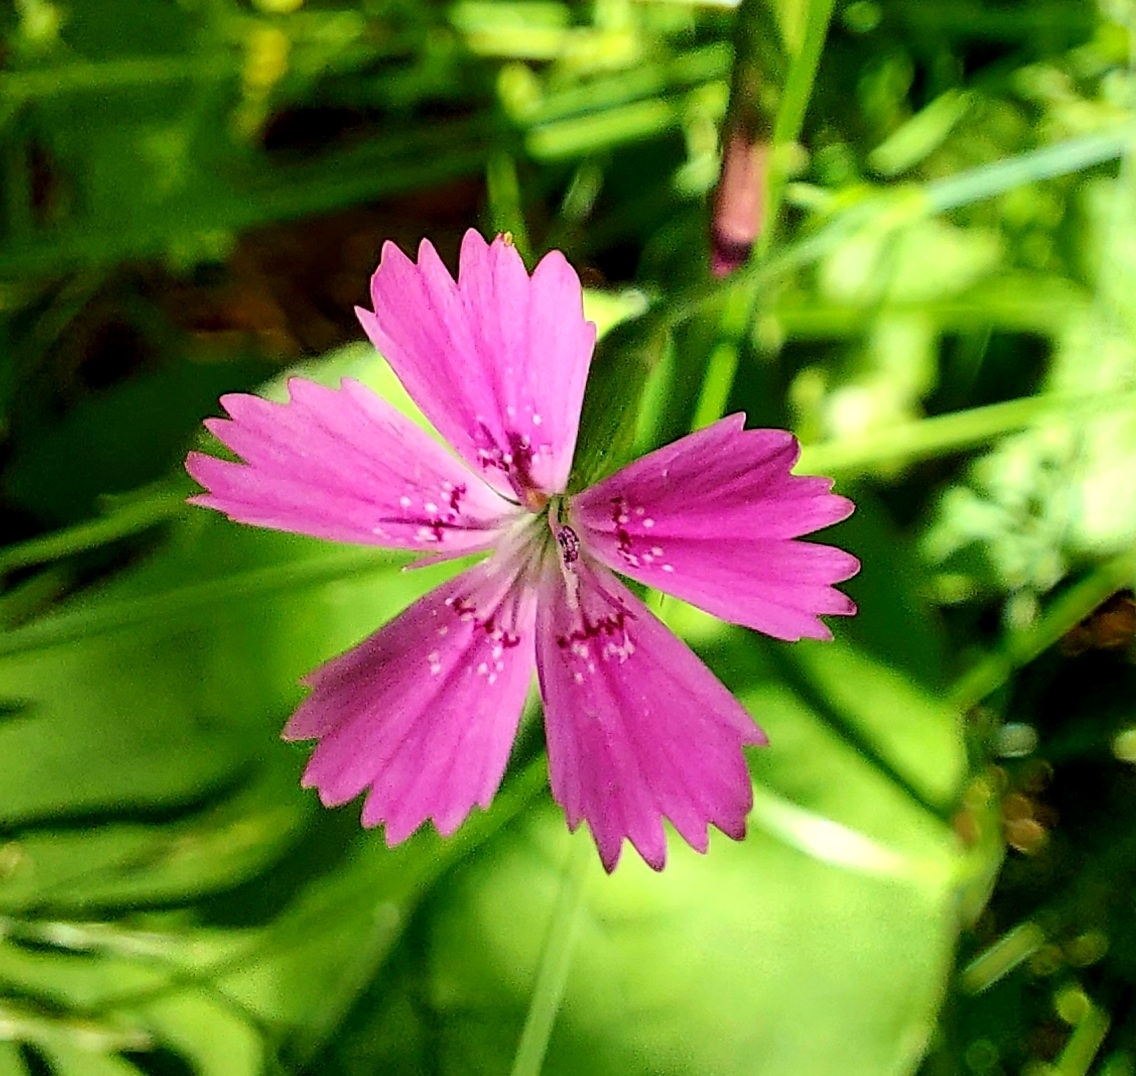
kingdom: Plantae
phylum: Tracheophyta
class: Magnoliopsida
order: Caryophyllales
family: Caryophyllaceae
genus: Dianthus
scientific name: Dianthus deltoides
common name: Maiden pink
